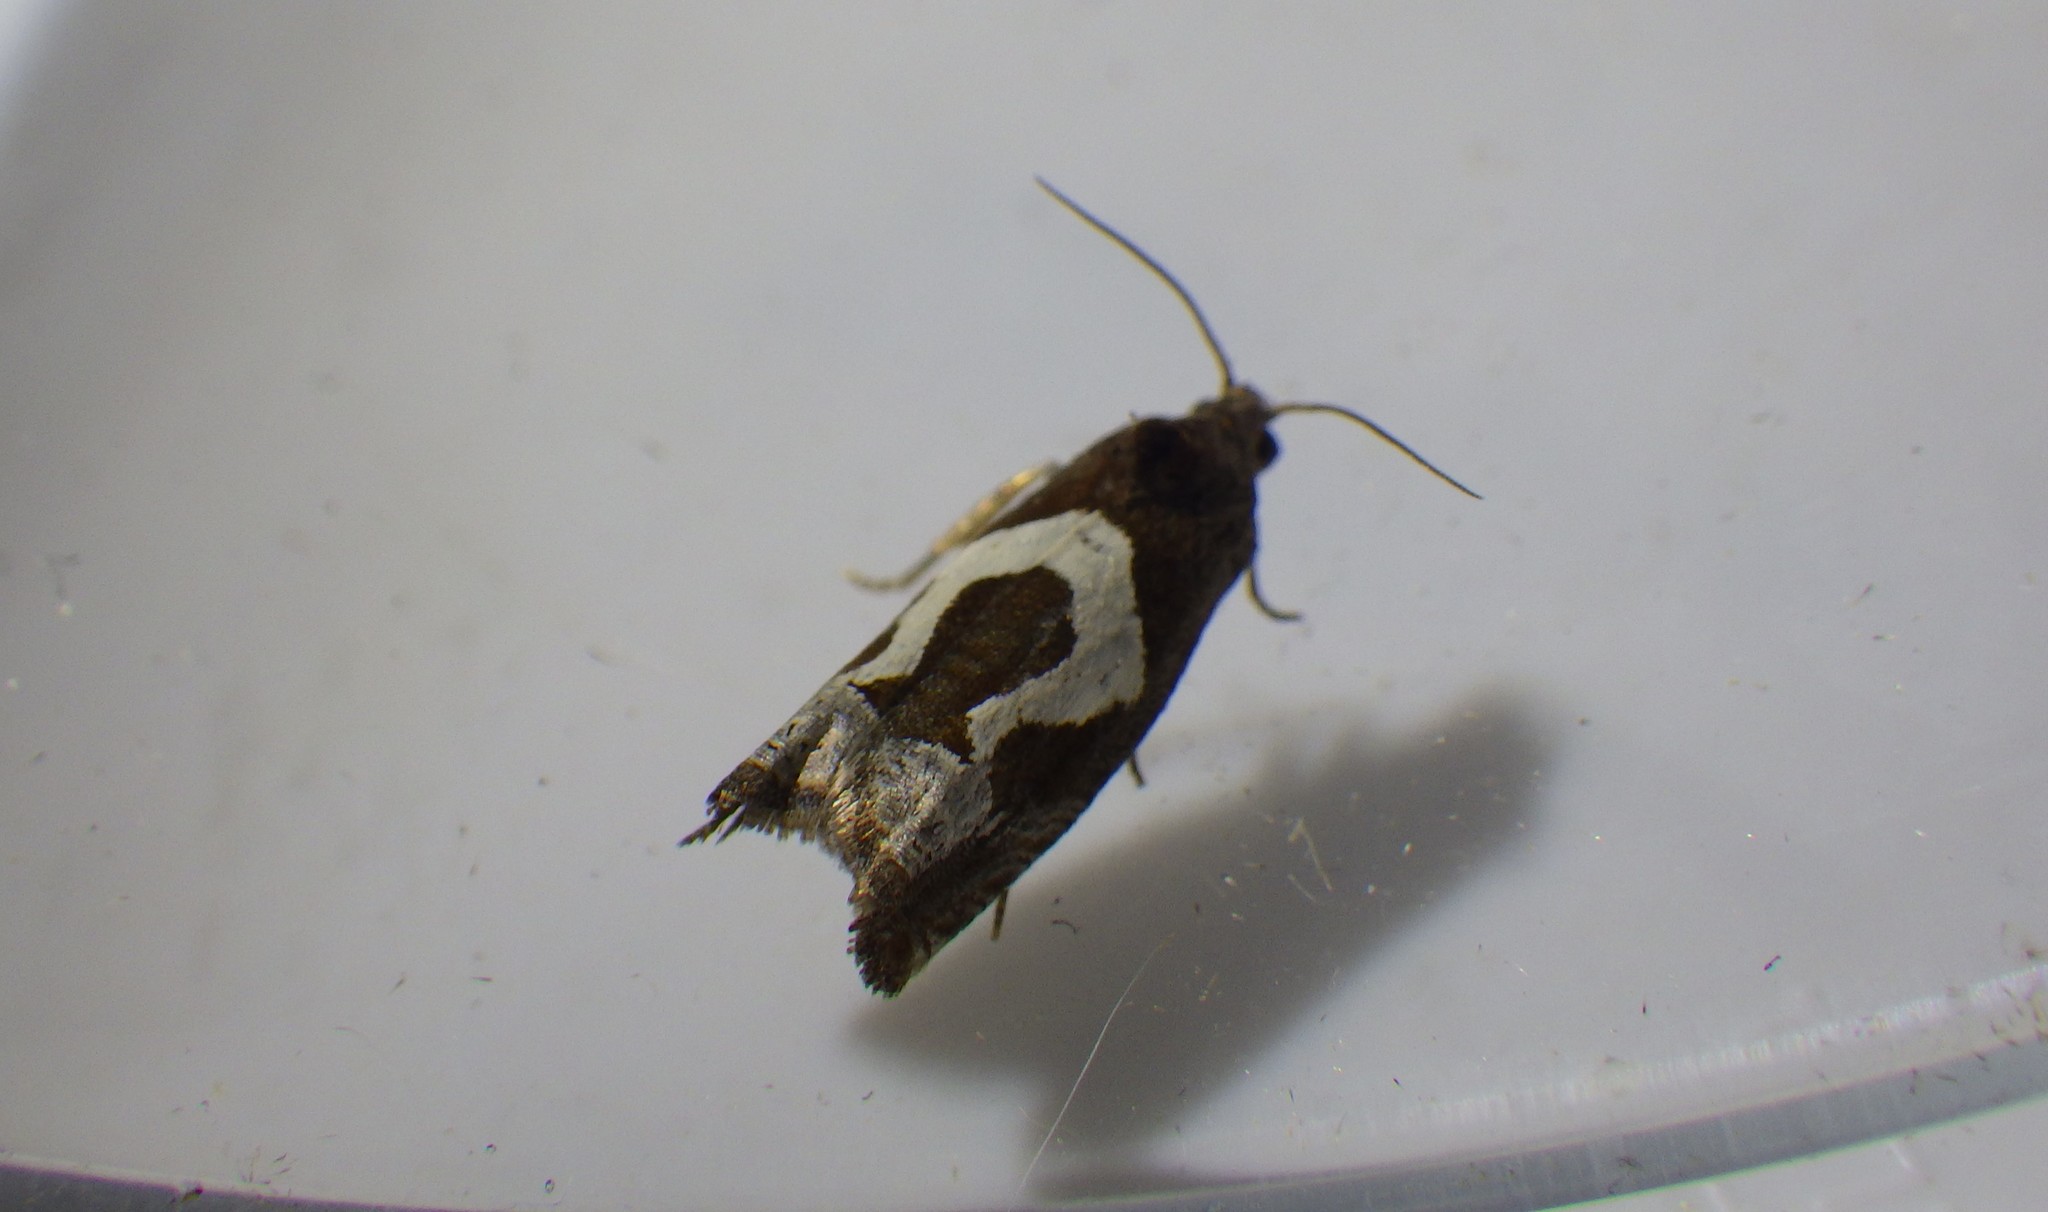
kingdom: Animalia
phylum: Arthropoda
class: Insecta
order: Lepidoptera
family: Tortricidae
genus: Epiblema
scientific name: Epiblema foenella
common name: White-foot bell
